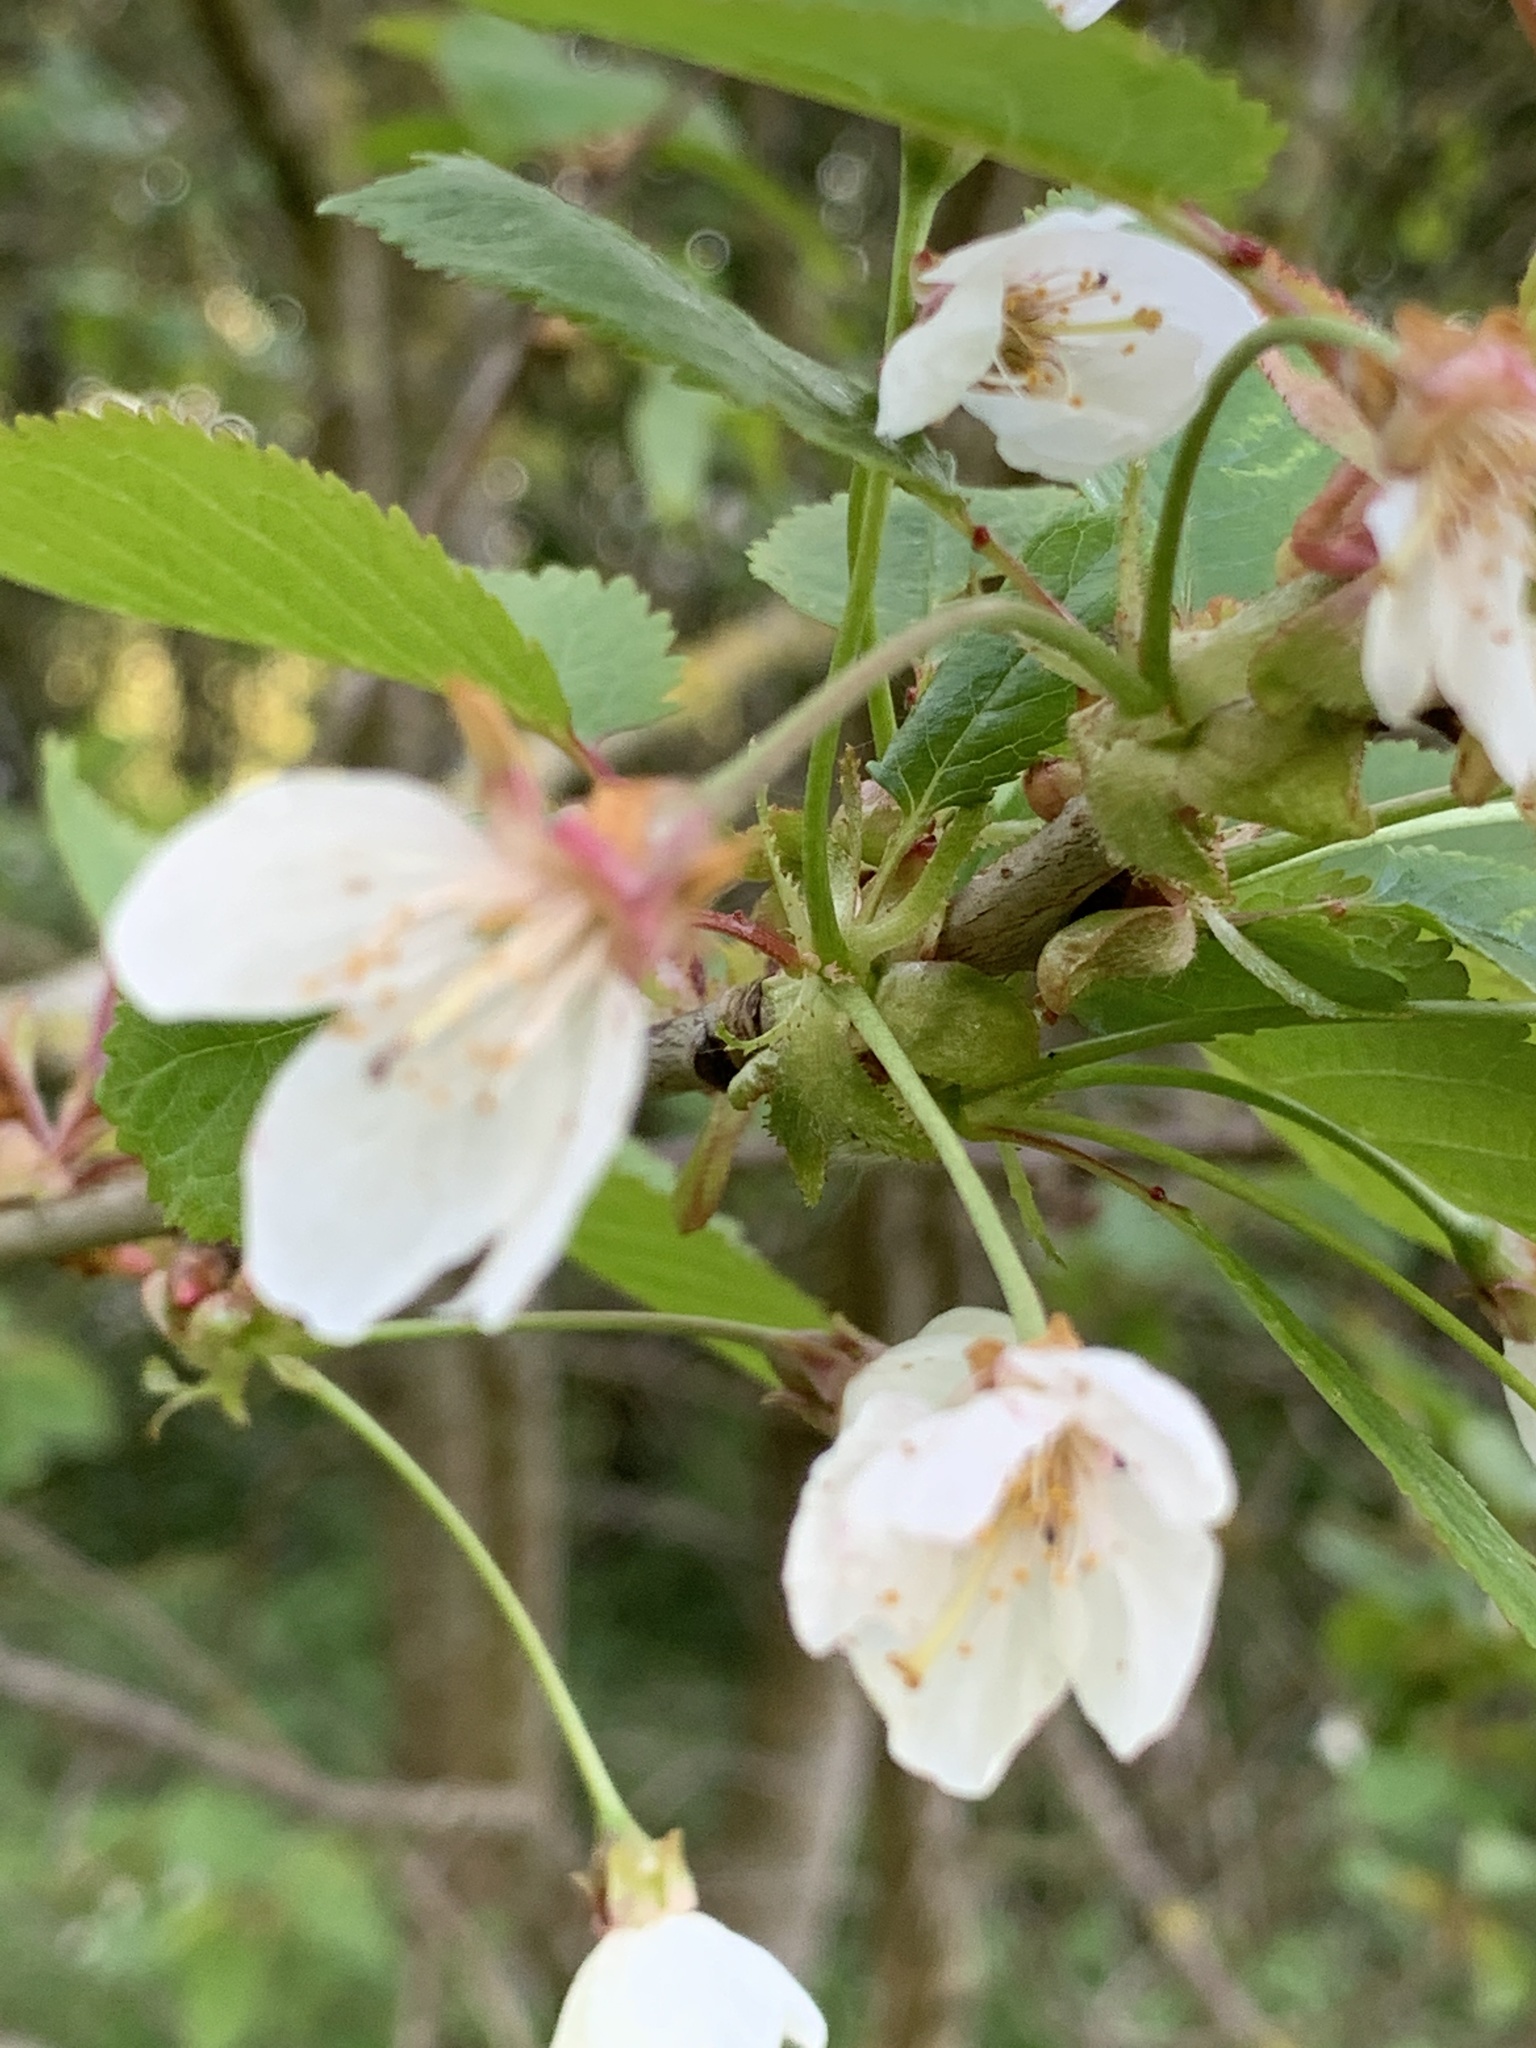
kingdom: Plantae
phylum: Tracheophyta
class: Magnoliopsida
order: Rosales
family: Rosaceae
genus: Prunus
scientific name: Prunus avium
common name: Sweet cherry
